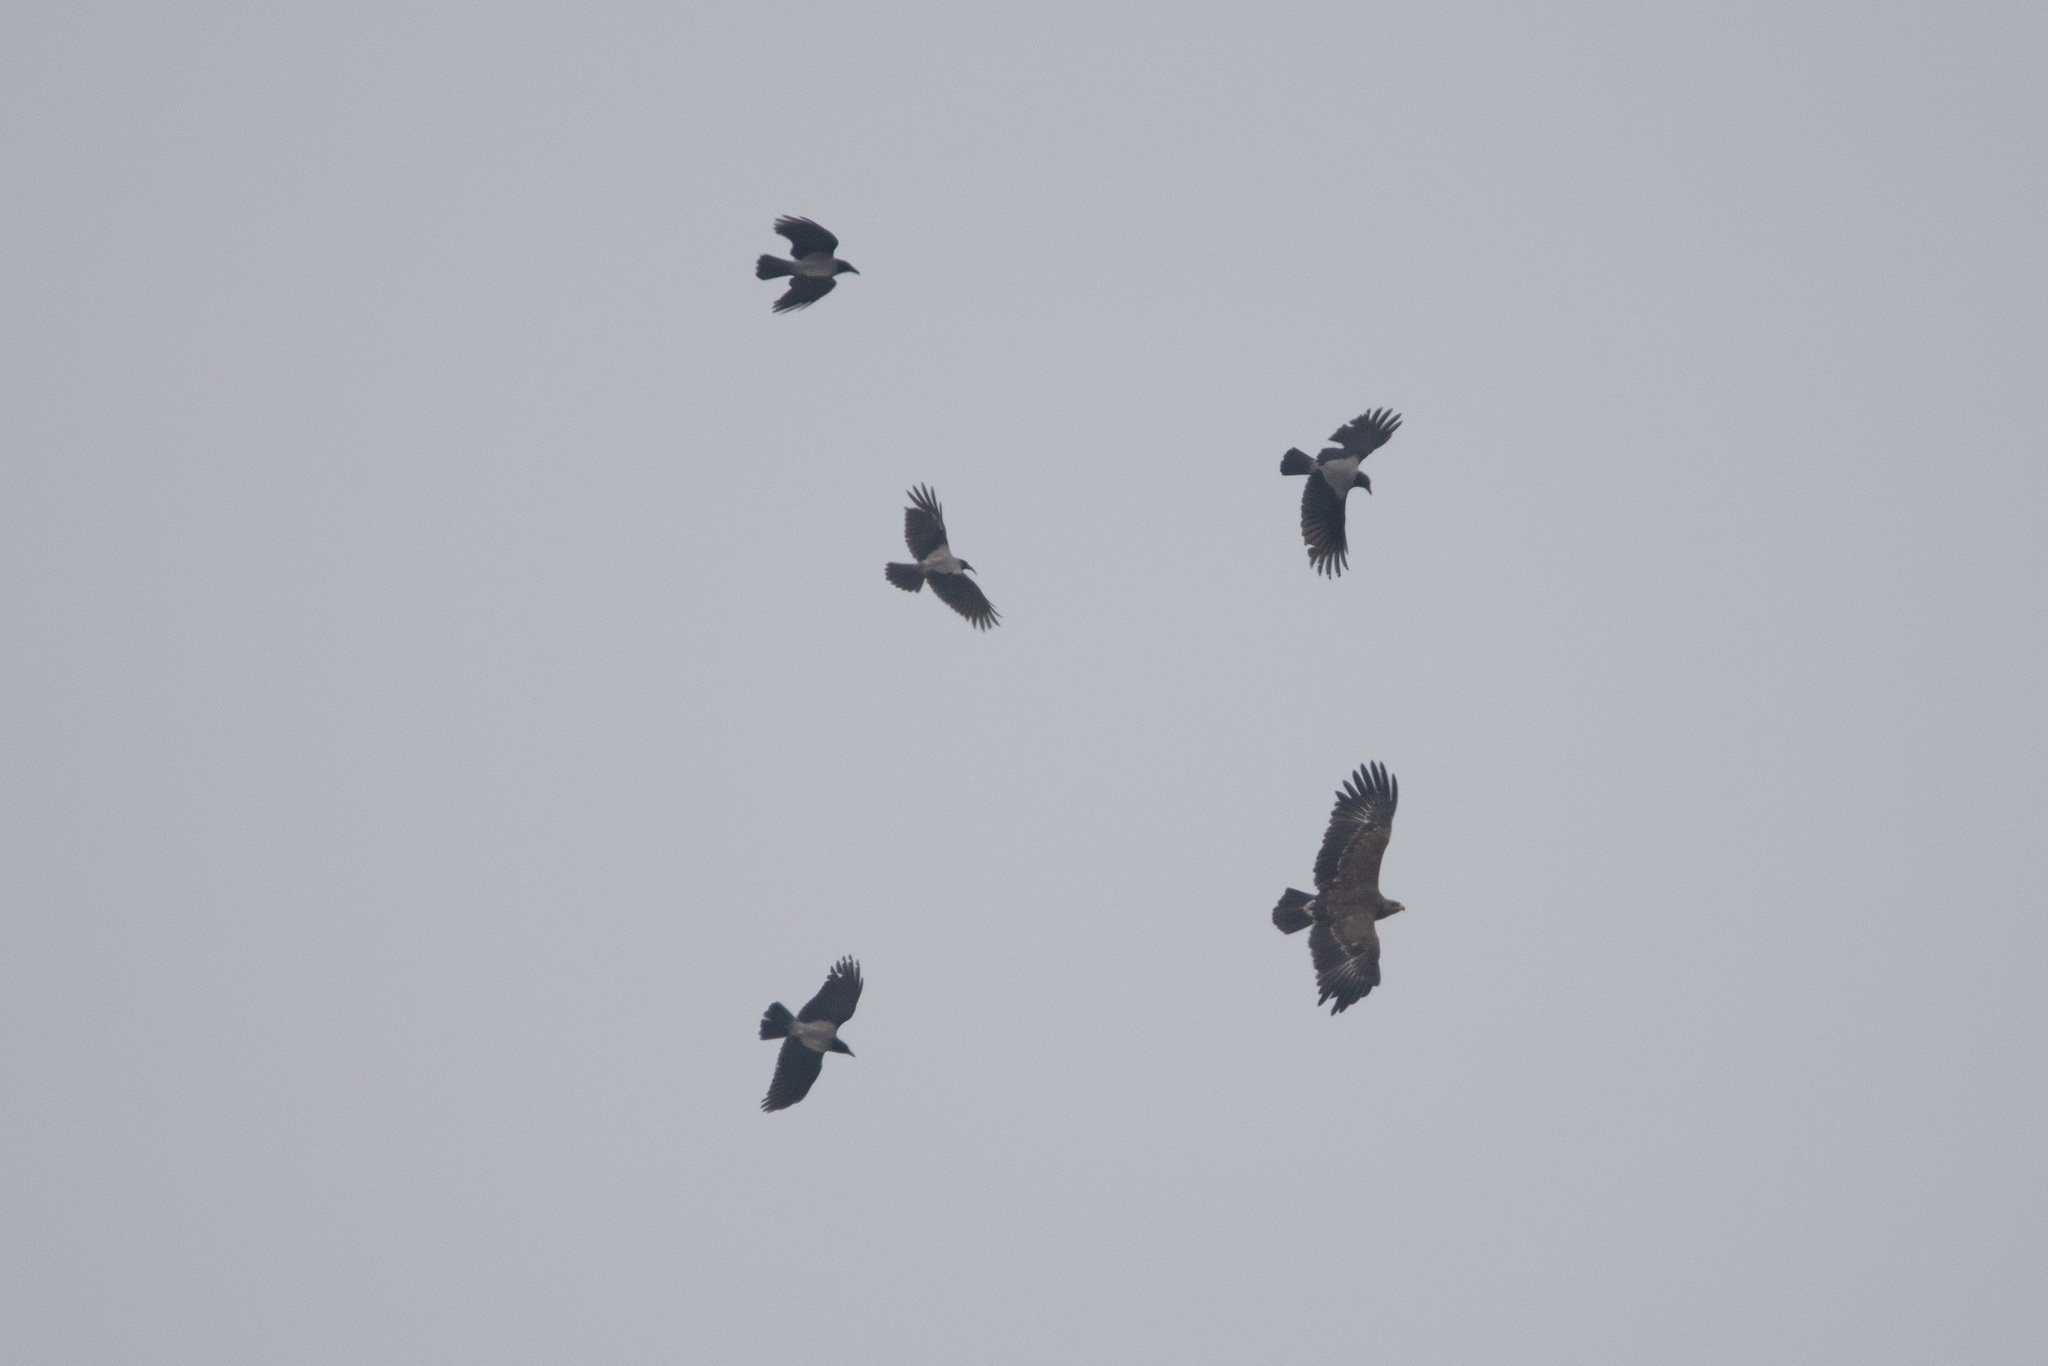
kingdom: Animalia
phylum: Chordata
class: Aves
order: Accipitriformes
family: Accipitridae
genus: Aquila
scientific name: Aquila clanga
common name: Greater spotted eagle
